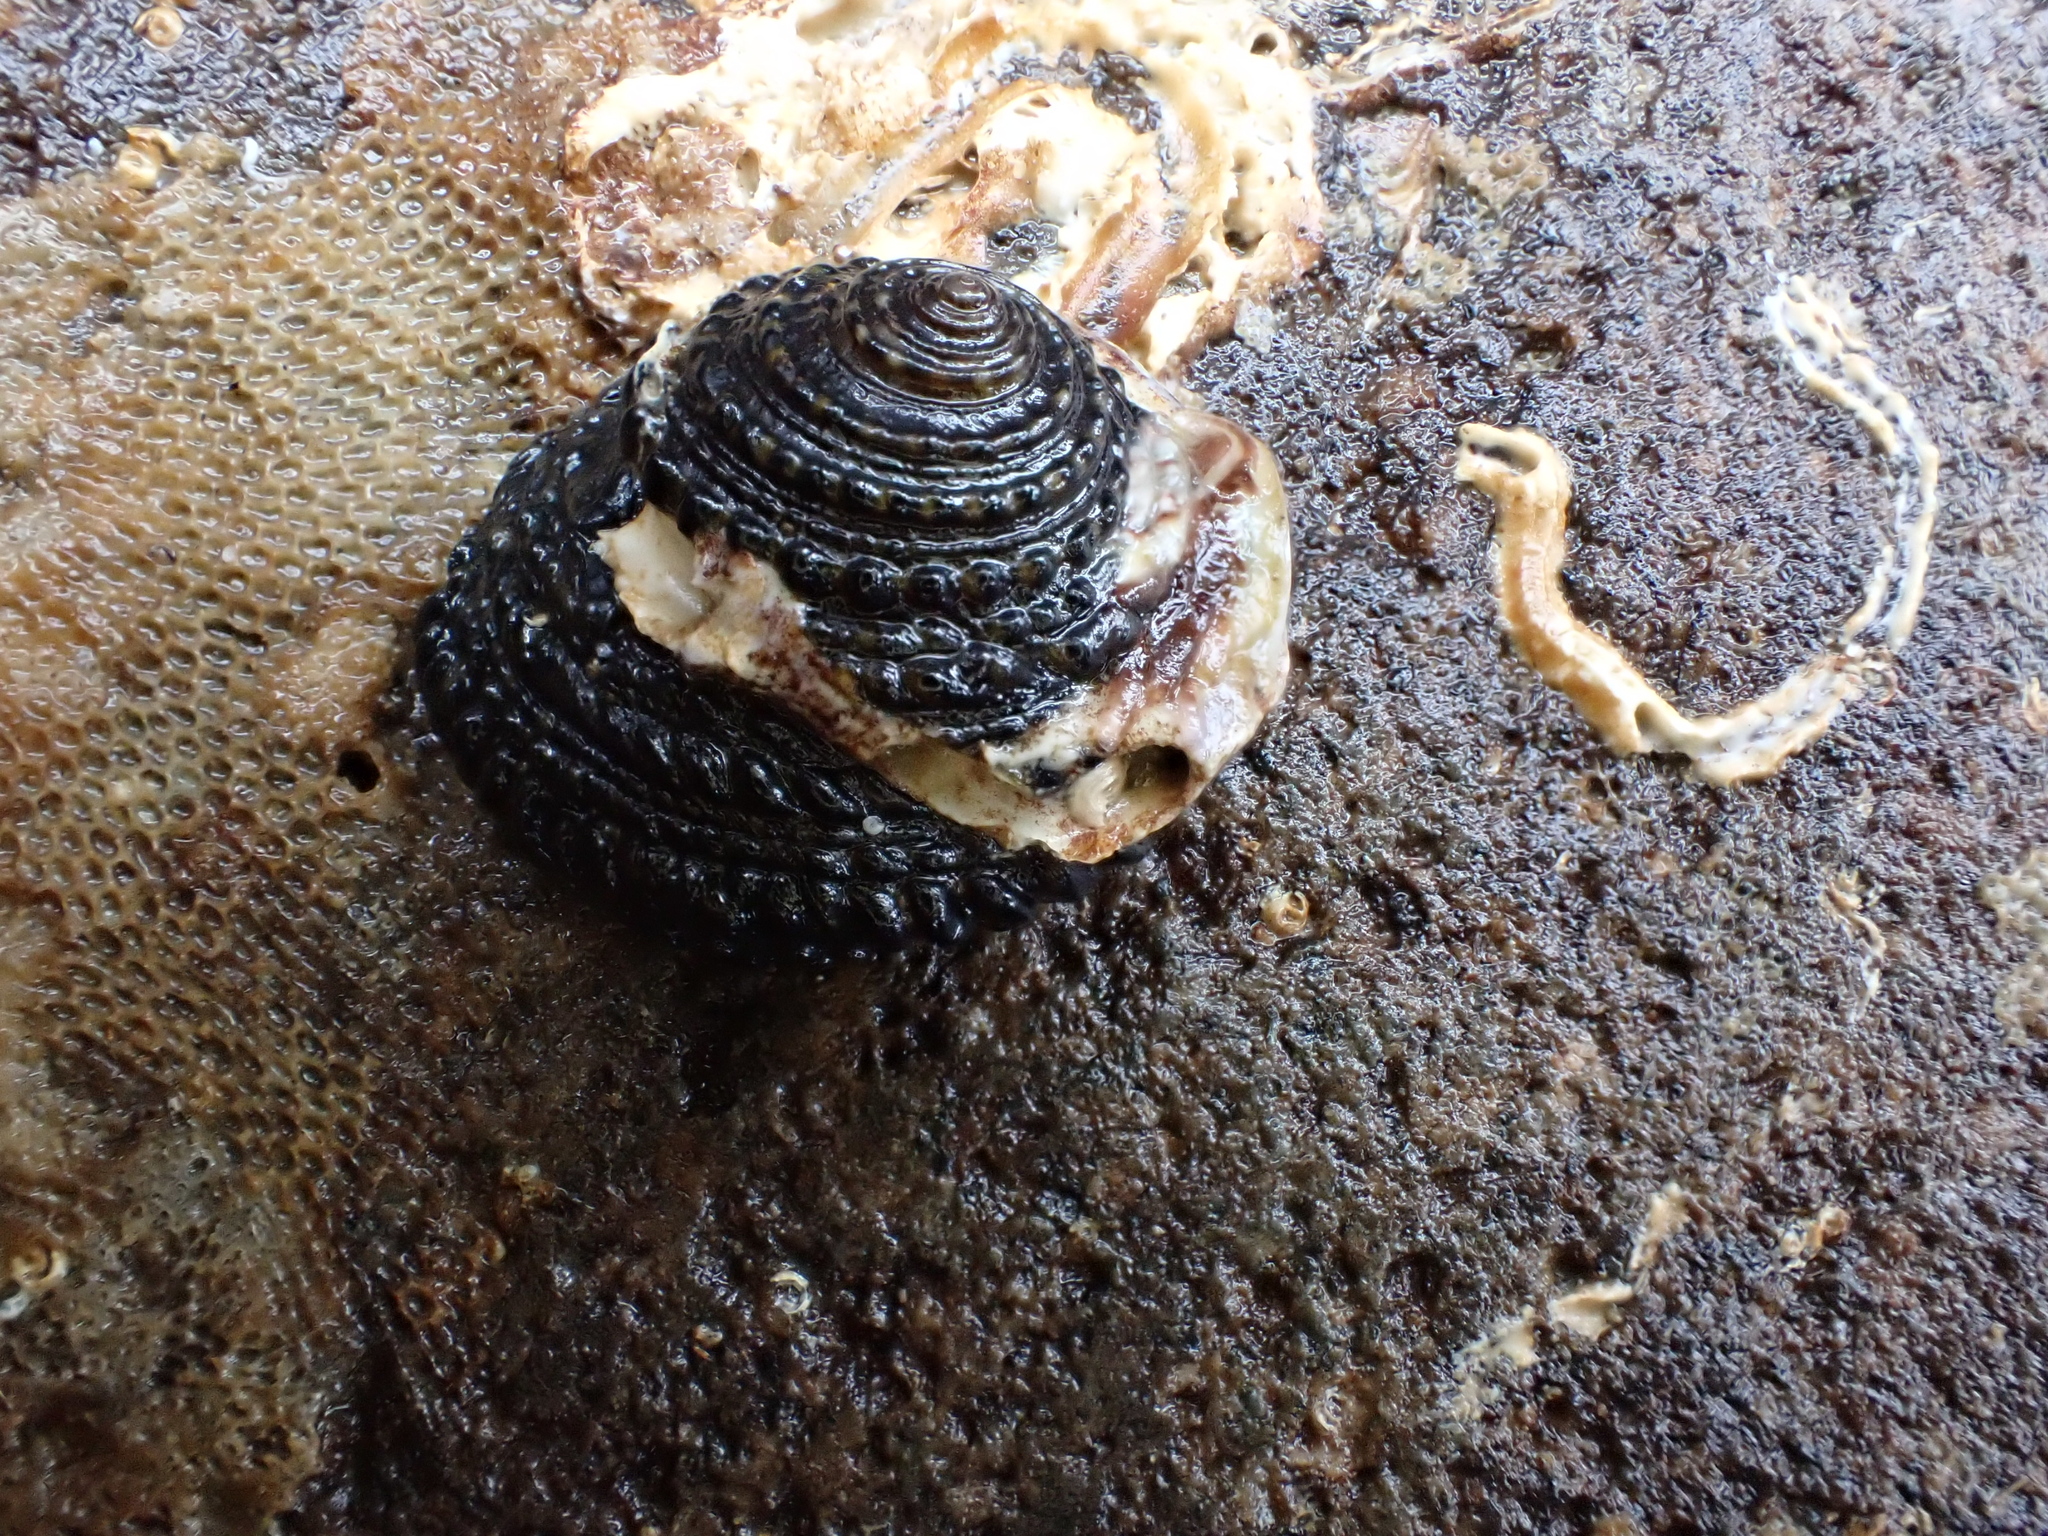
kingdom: Animalia
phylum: Mollusca
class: Gastropoda
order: Trochida
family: Trochidae
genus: Diloma
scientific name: Diloma bicanaliculatum
